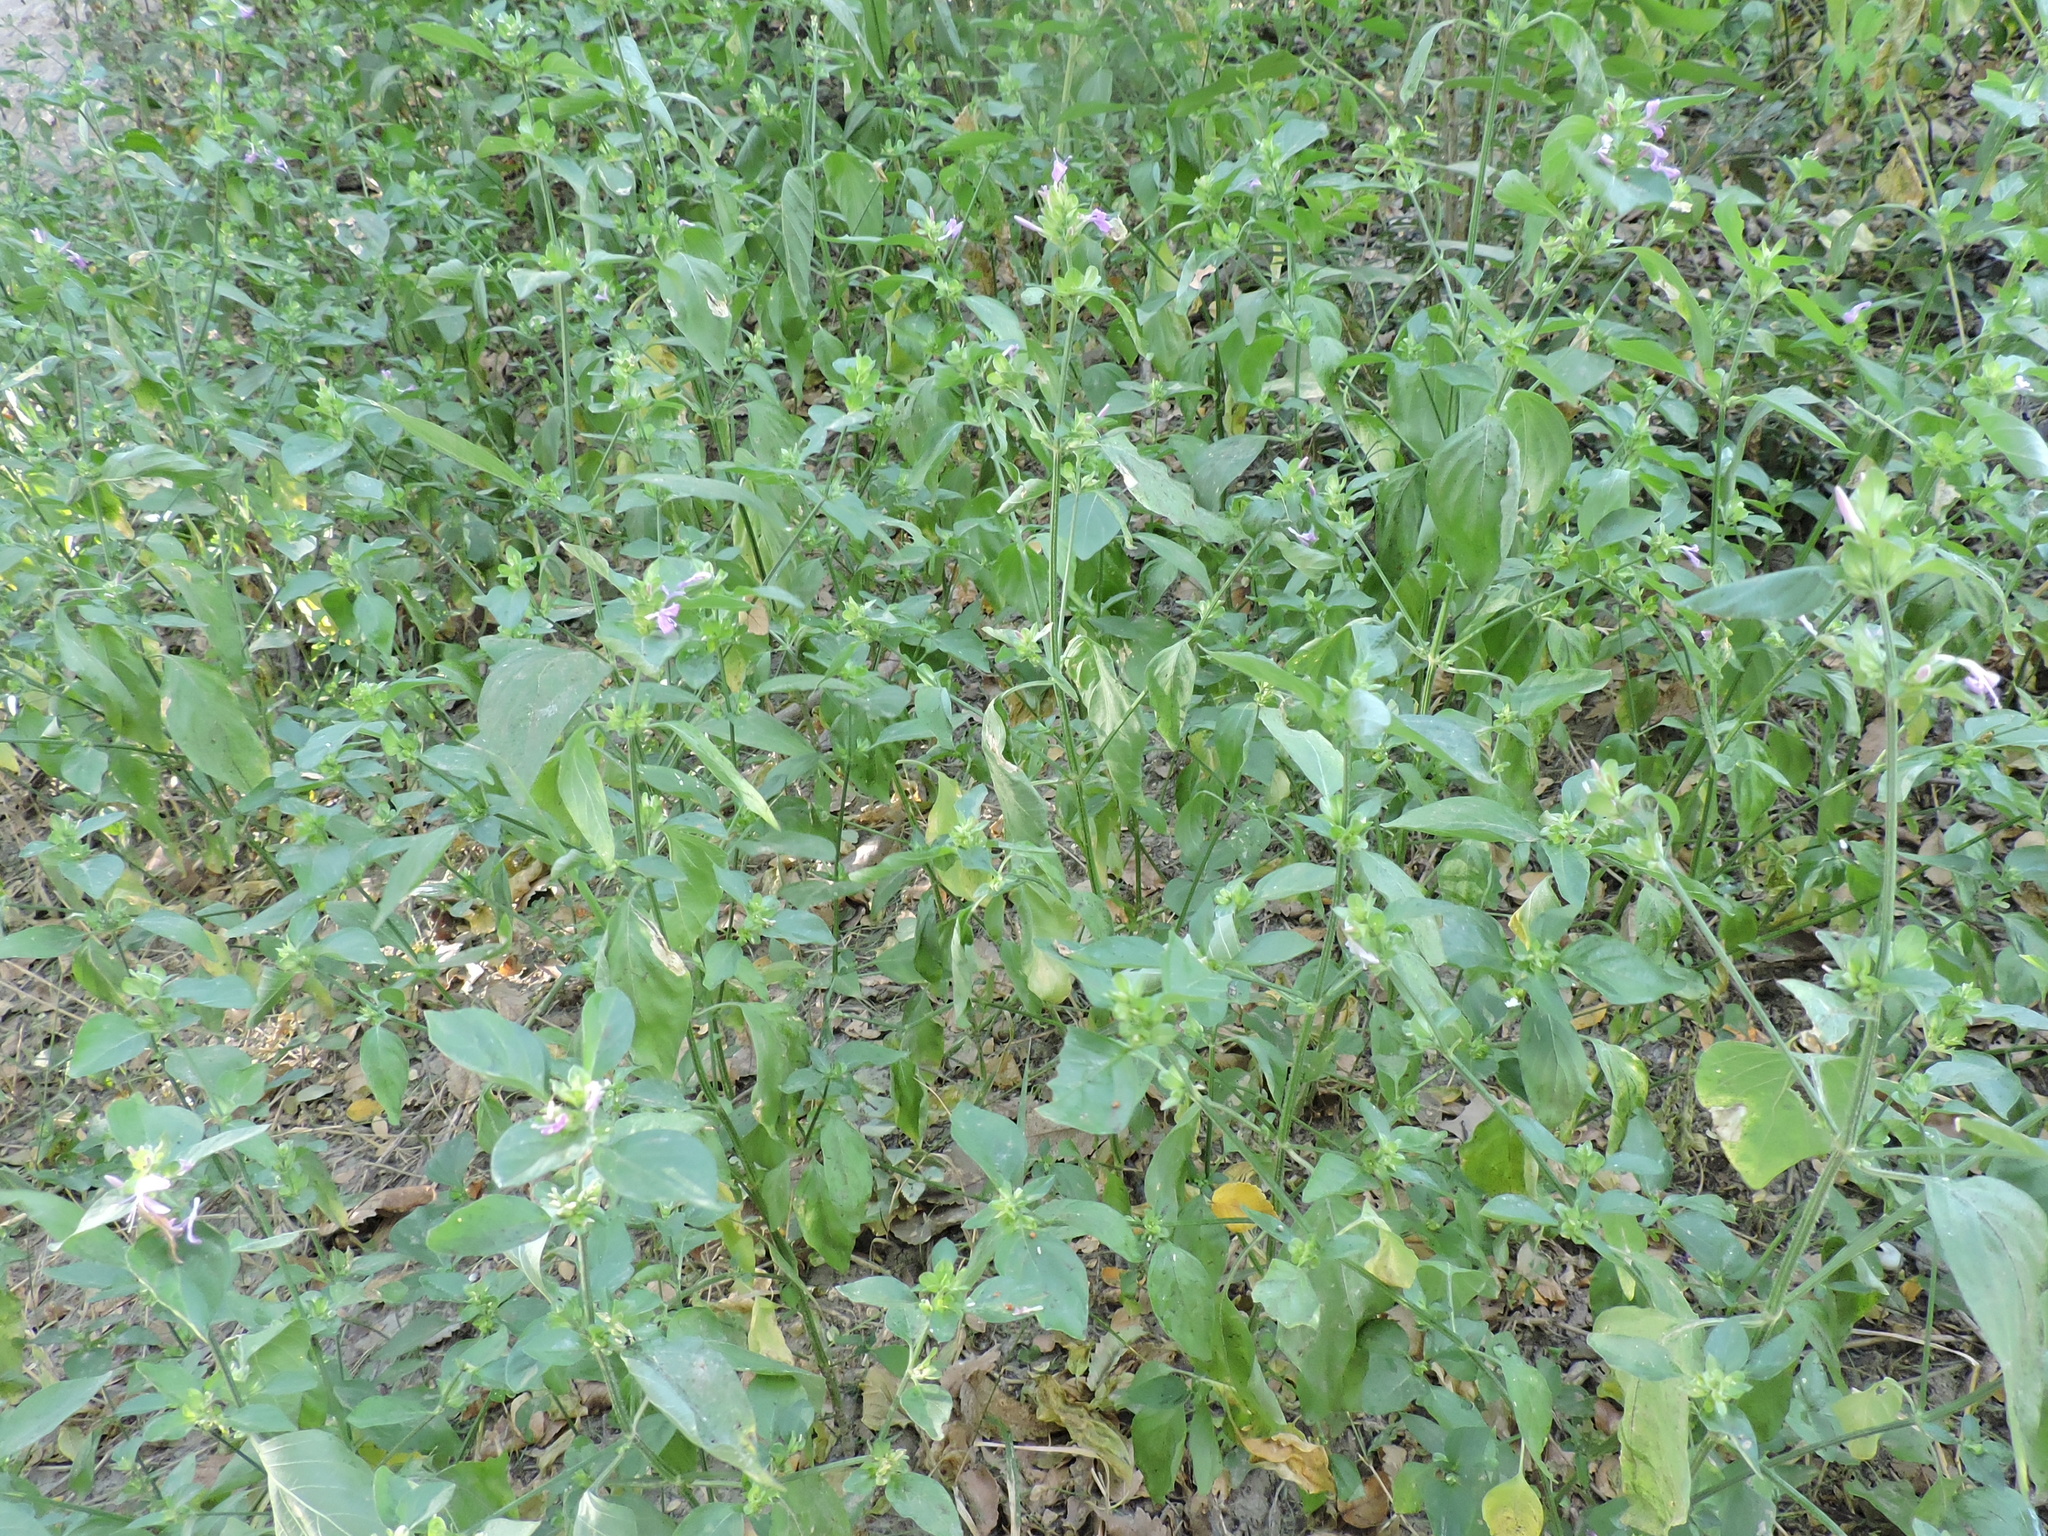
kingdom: Plantae
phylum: Tracheophyta
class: Magnoliopsida
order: Lamiales
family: Acanthaceae
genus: Dicliptera
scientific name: Dicliptera brachiata
